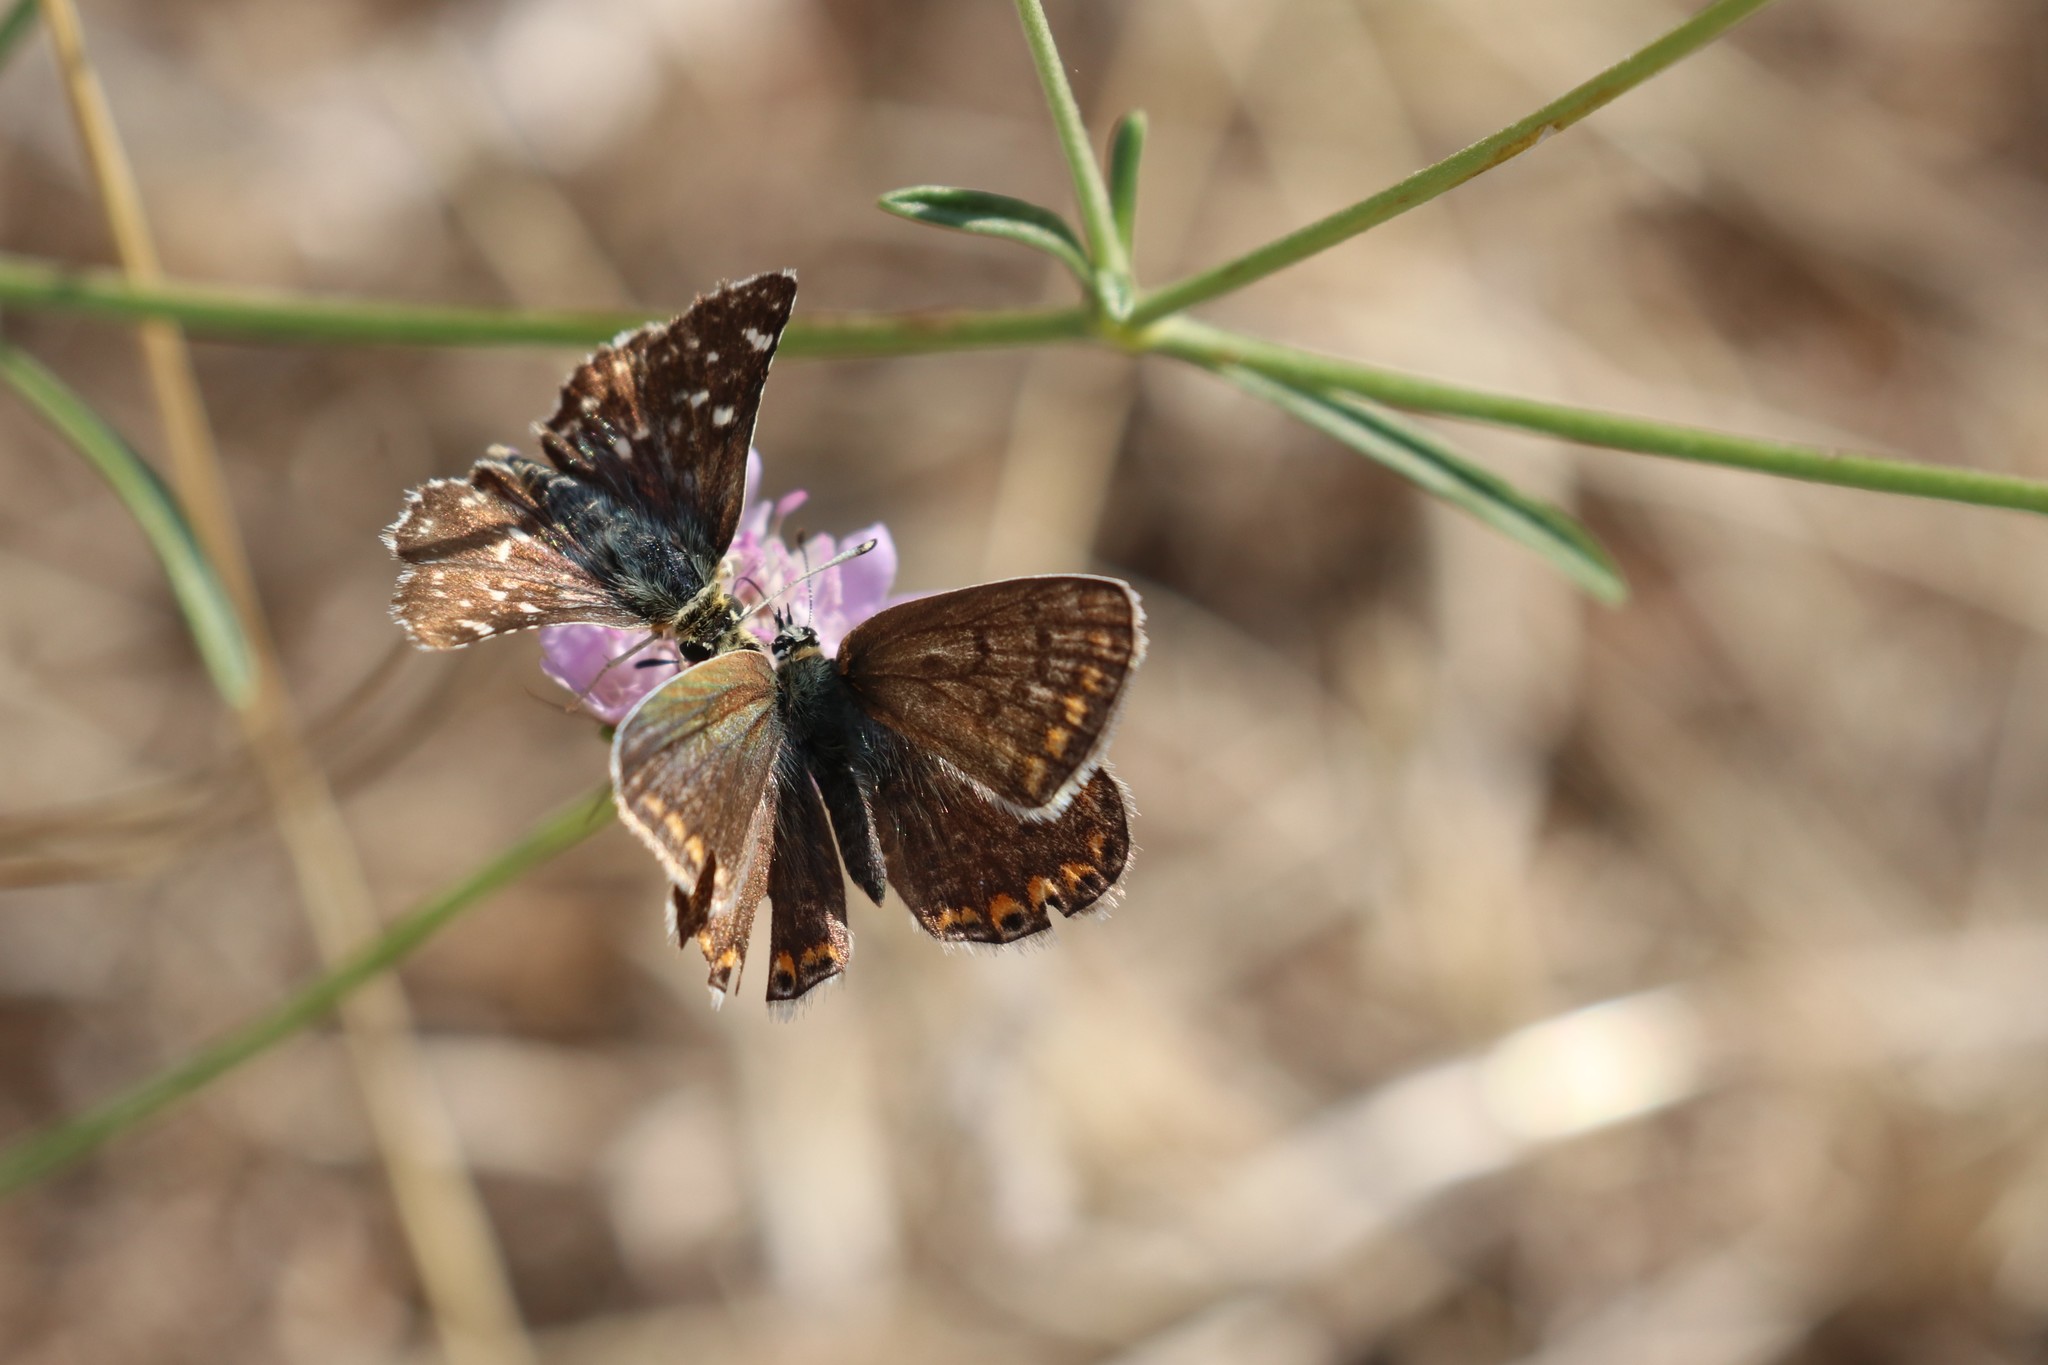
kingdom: Animalia
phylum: Arthropoda
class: Insecta
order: Lepidoptera
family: Hesperiidae
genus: Spialia
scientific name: Spialia sertorius
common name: Red underwing skipper
